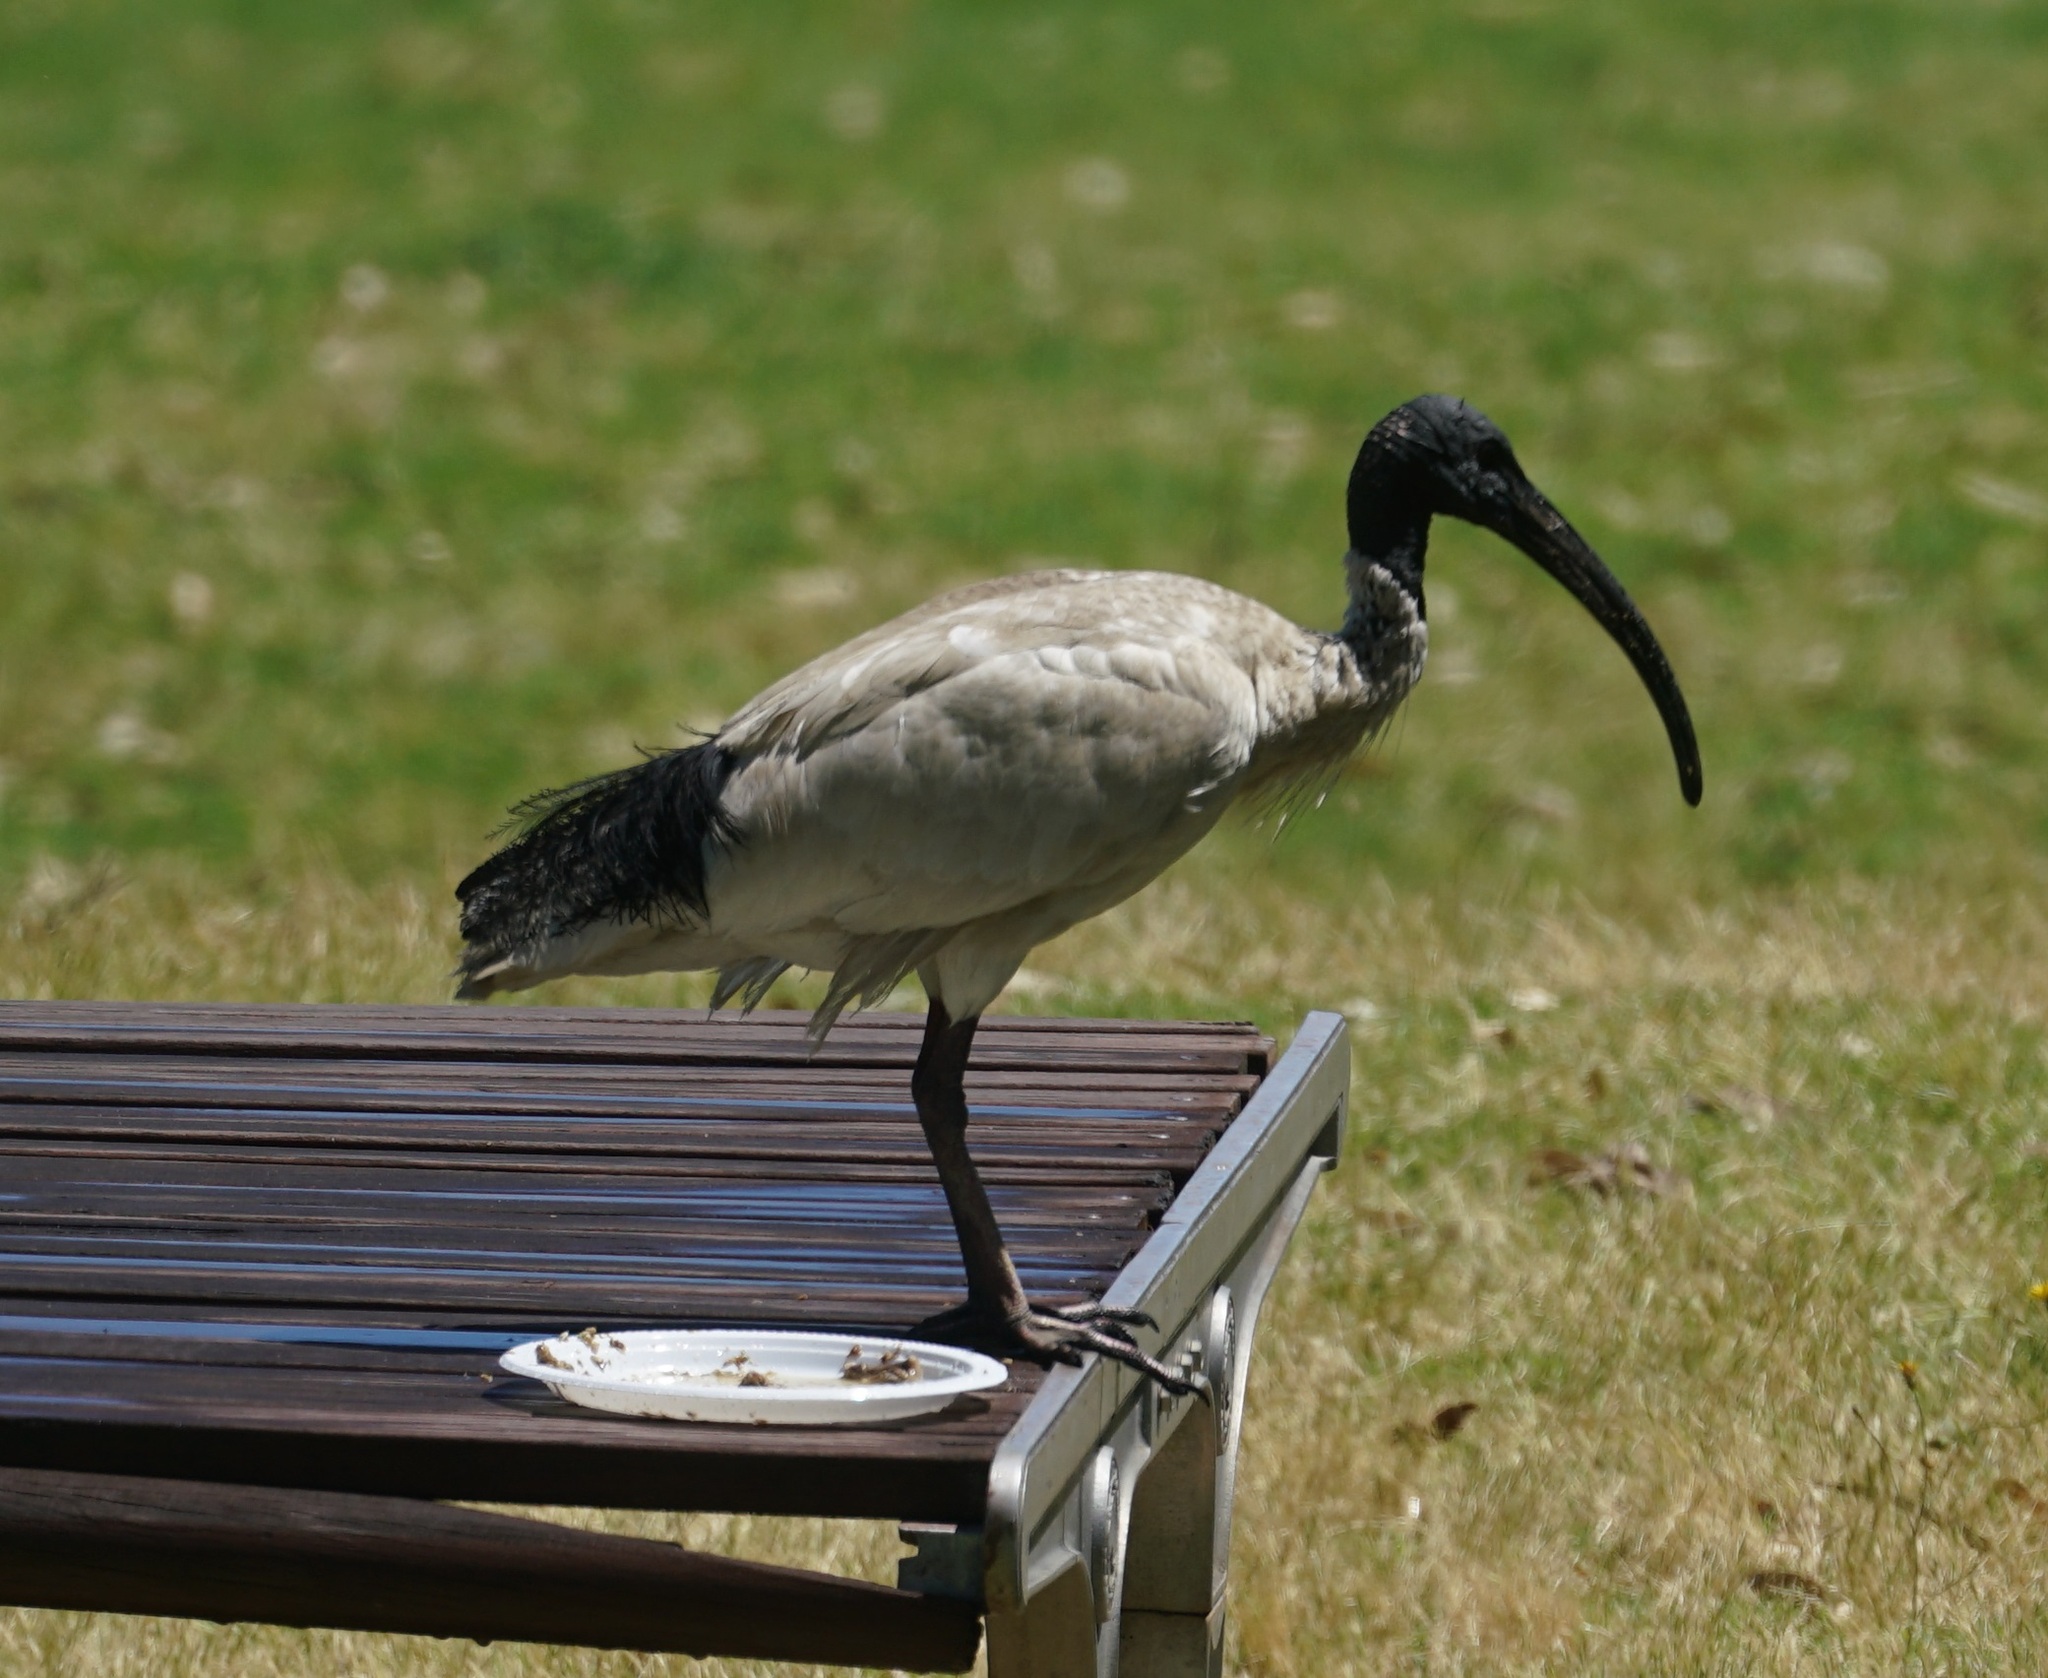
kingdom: Animalia
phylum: Chordata
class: Aves
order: Pelecaniformes
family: Threskiornithidae
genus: Threskiornis
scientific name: Threskiornis molucca
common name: Australian white ibis
